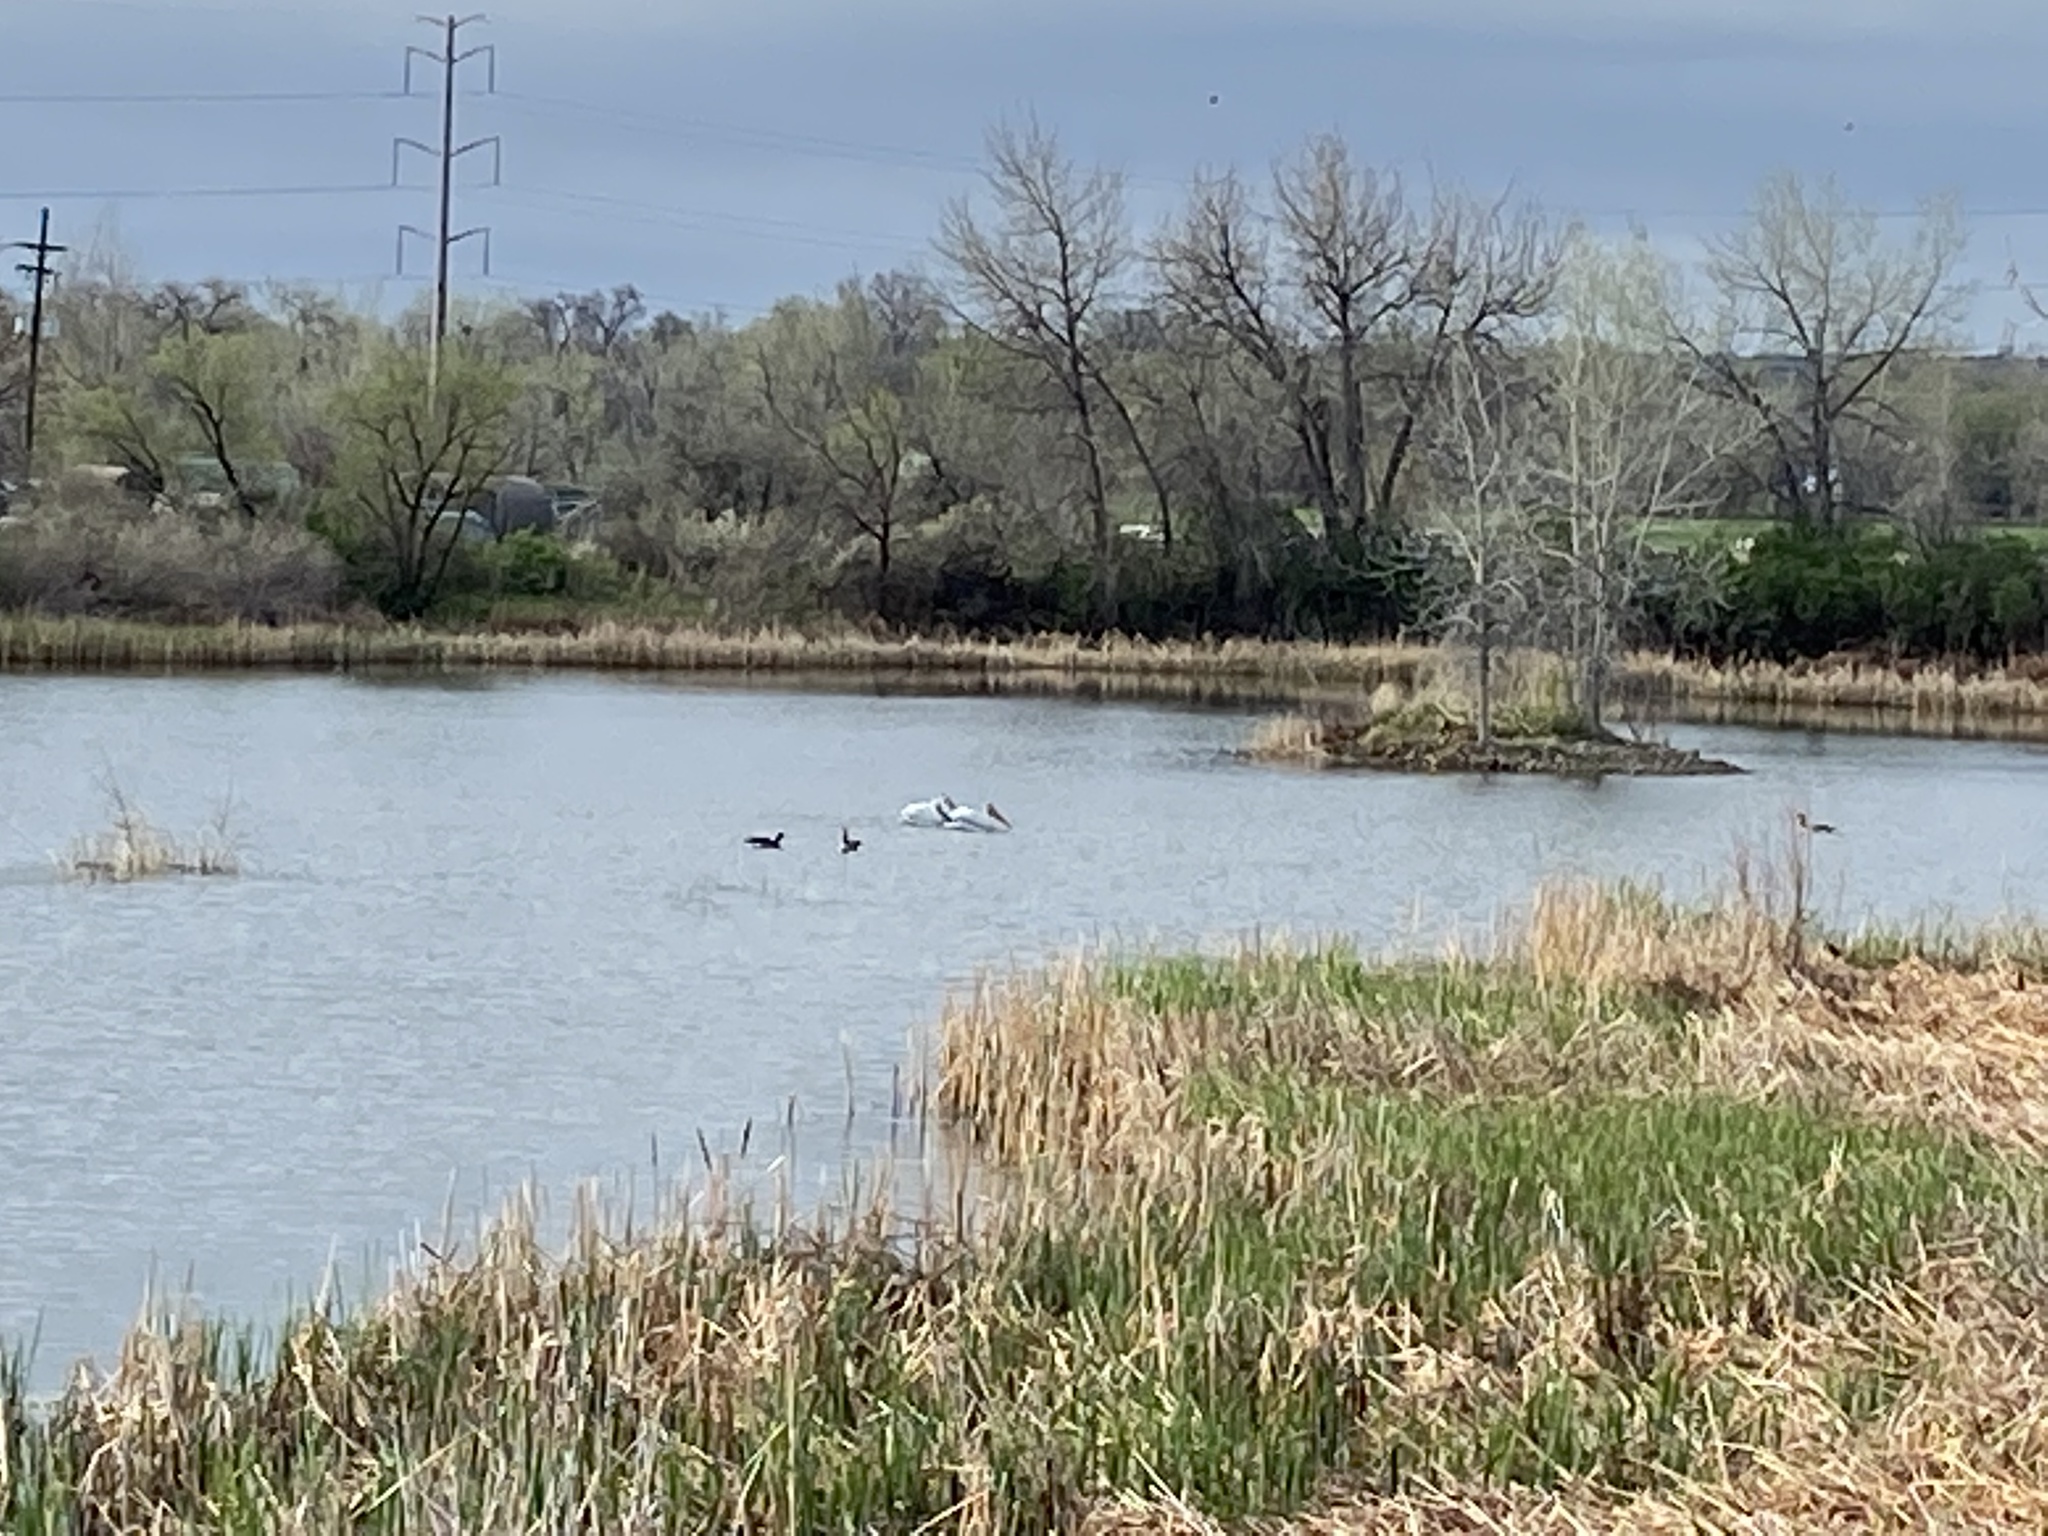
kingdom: Animalia
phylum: Chordata
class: Aves
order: Pelecaniformes
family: Pelecanidae
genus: Pelecanus
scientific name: Pelecanus erythrorhynchos
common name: American white pelican
